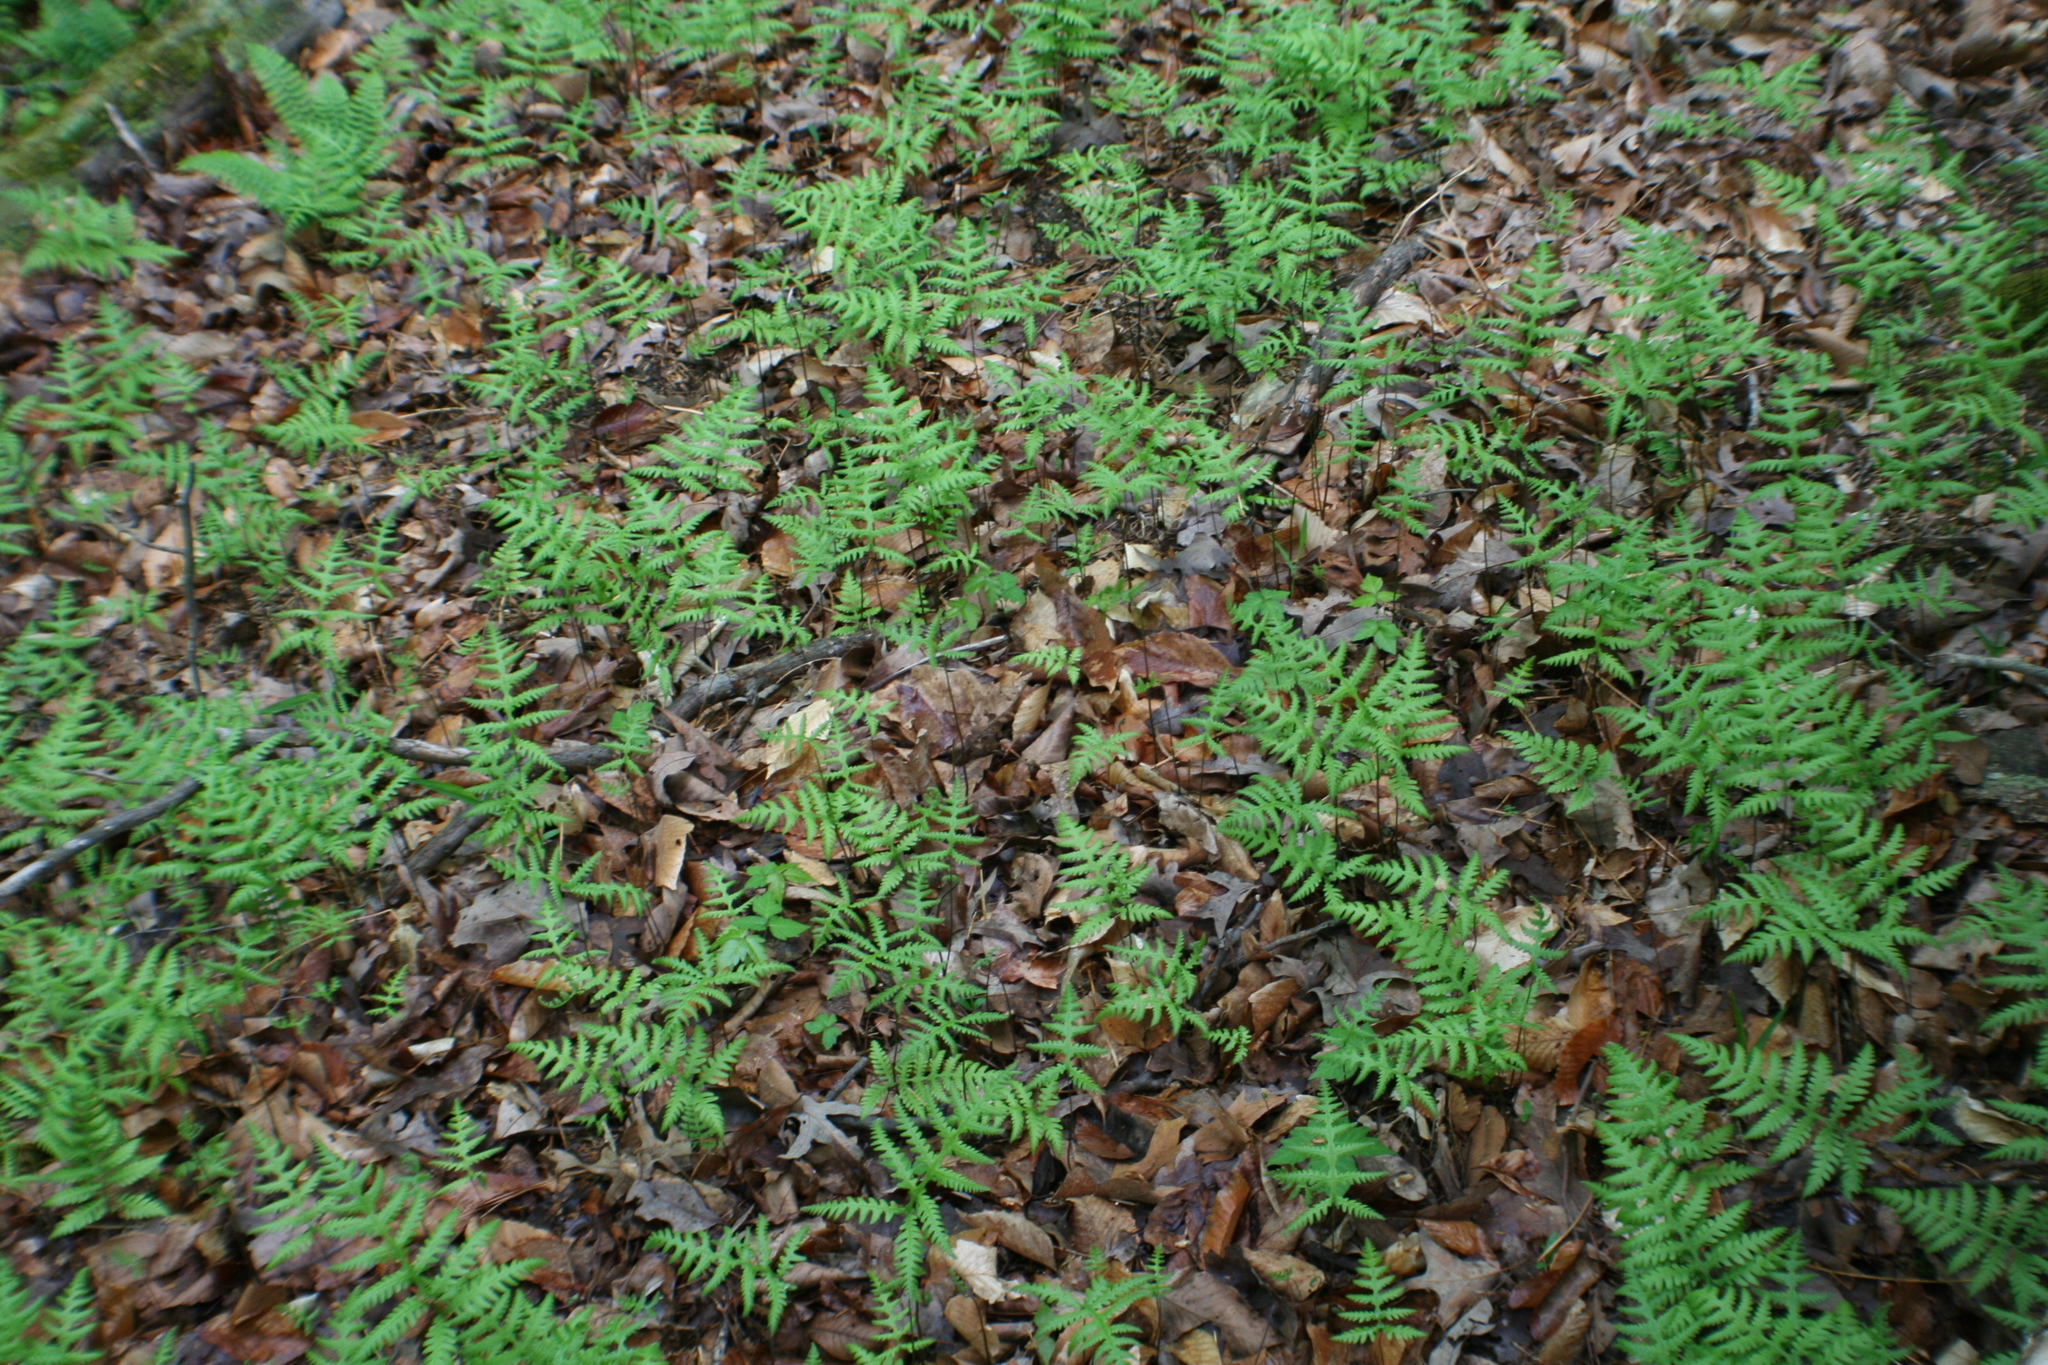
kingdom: Plantae
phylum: Tracheophyta
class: Polypodiopsida
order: Polypodiales
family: Thelypteridaceae
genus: Phegopteris
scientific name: Phegopteris hexagonoptera
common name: Broad beech fern
